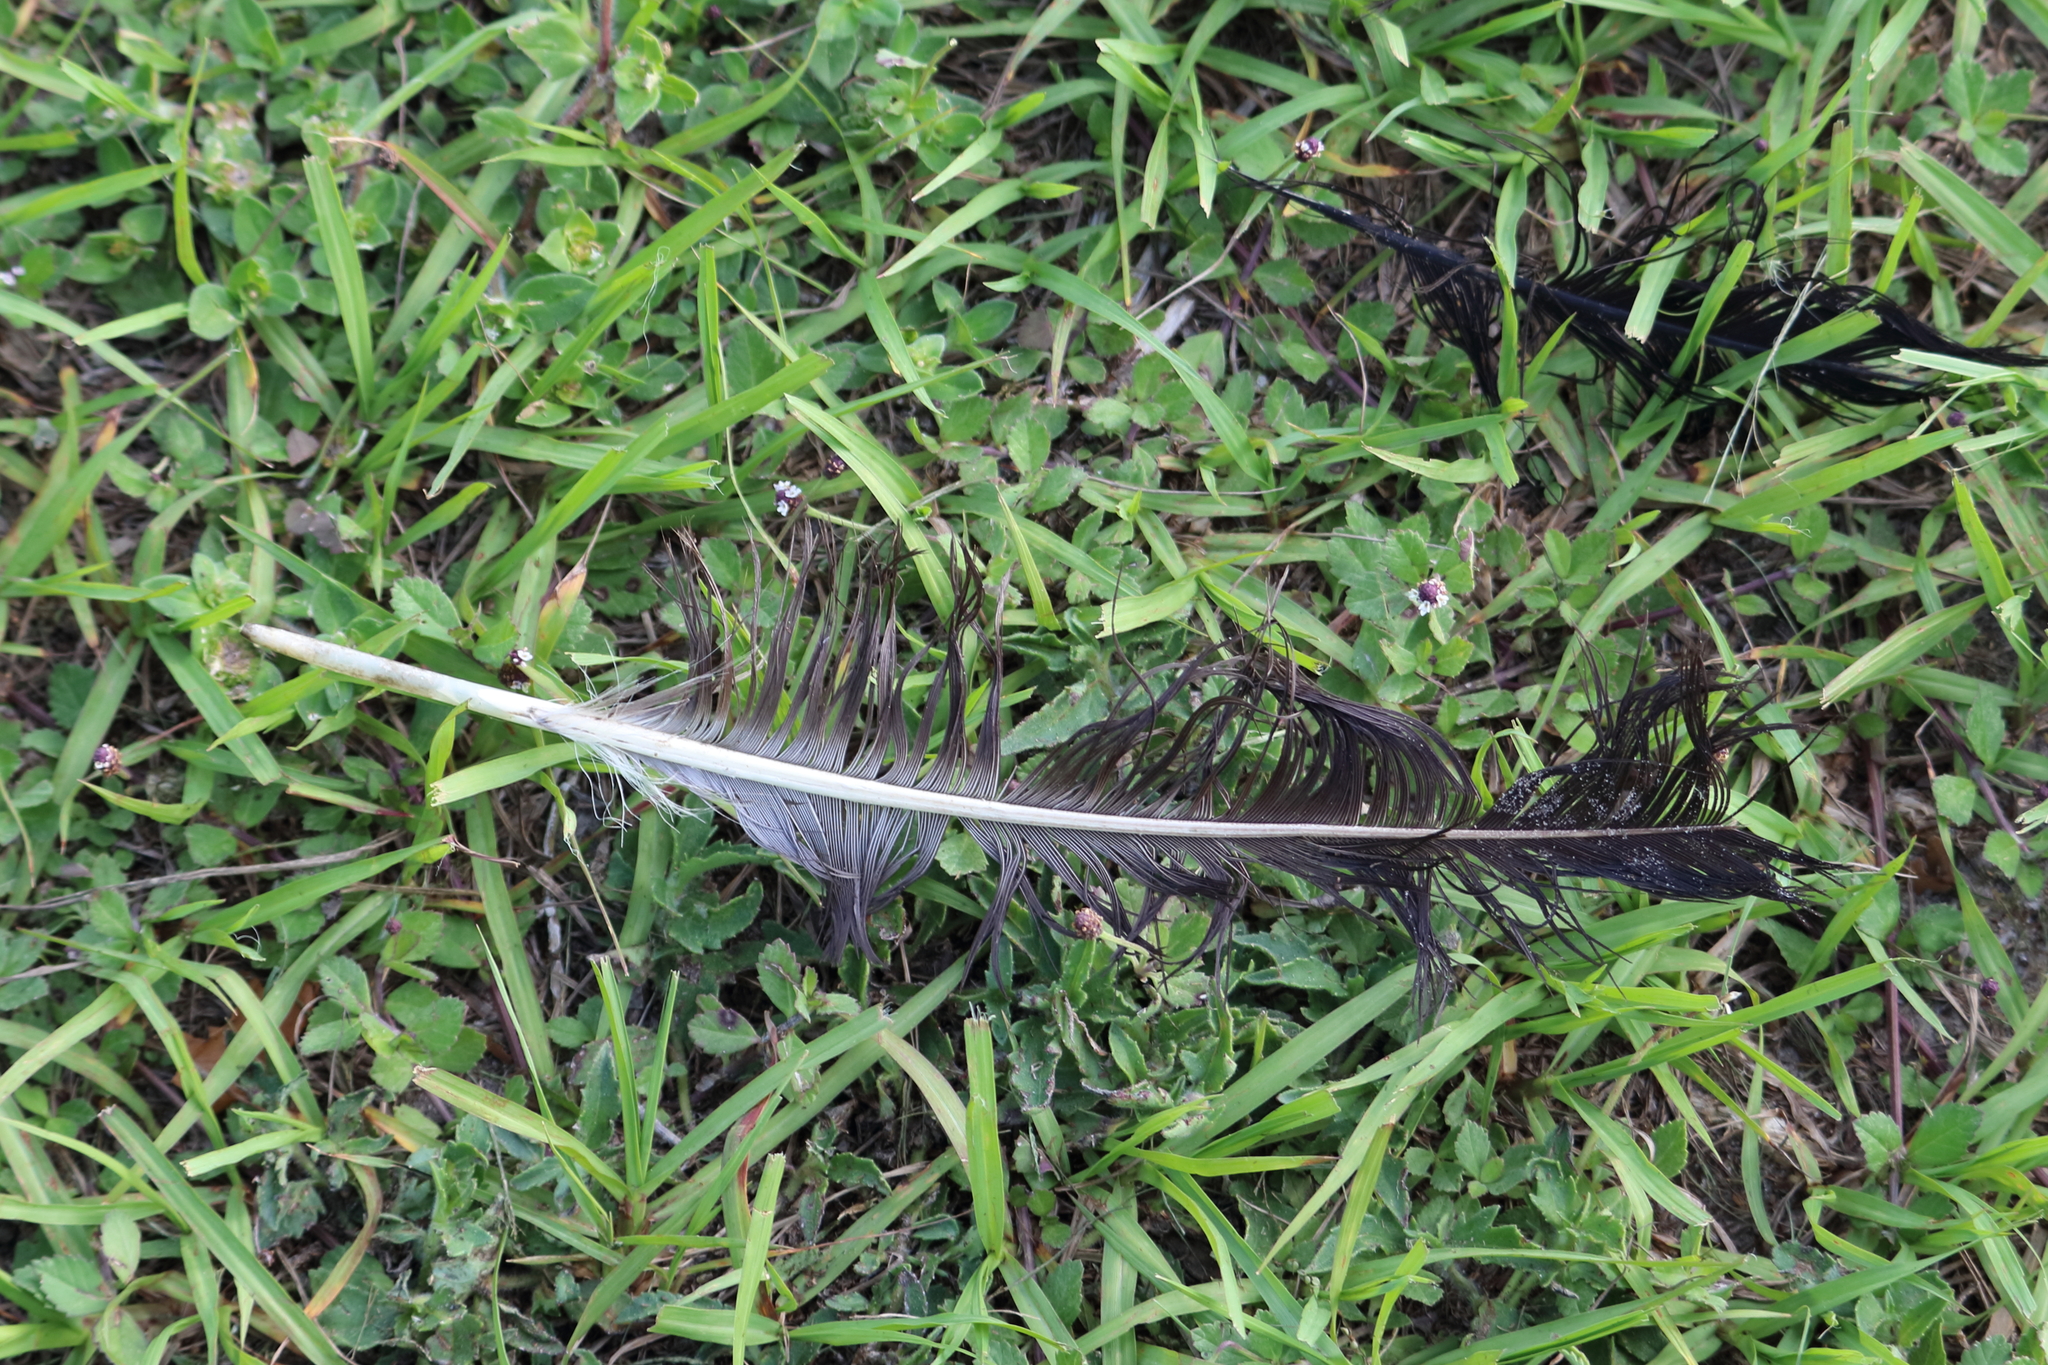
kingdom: Animalia
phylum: Chordata
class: Aves
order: Accipitriformes
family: Cathartidae
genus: Coragyps
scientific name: Coragyps atratus
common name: Black vulture
